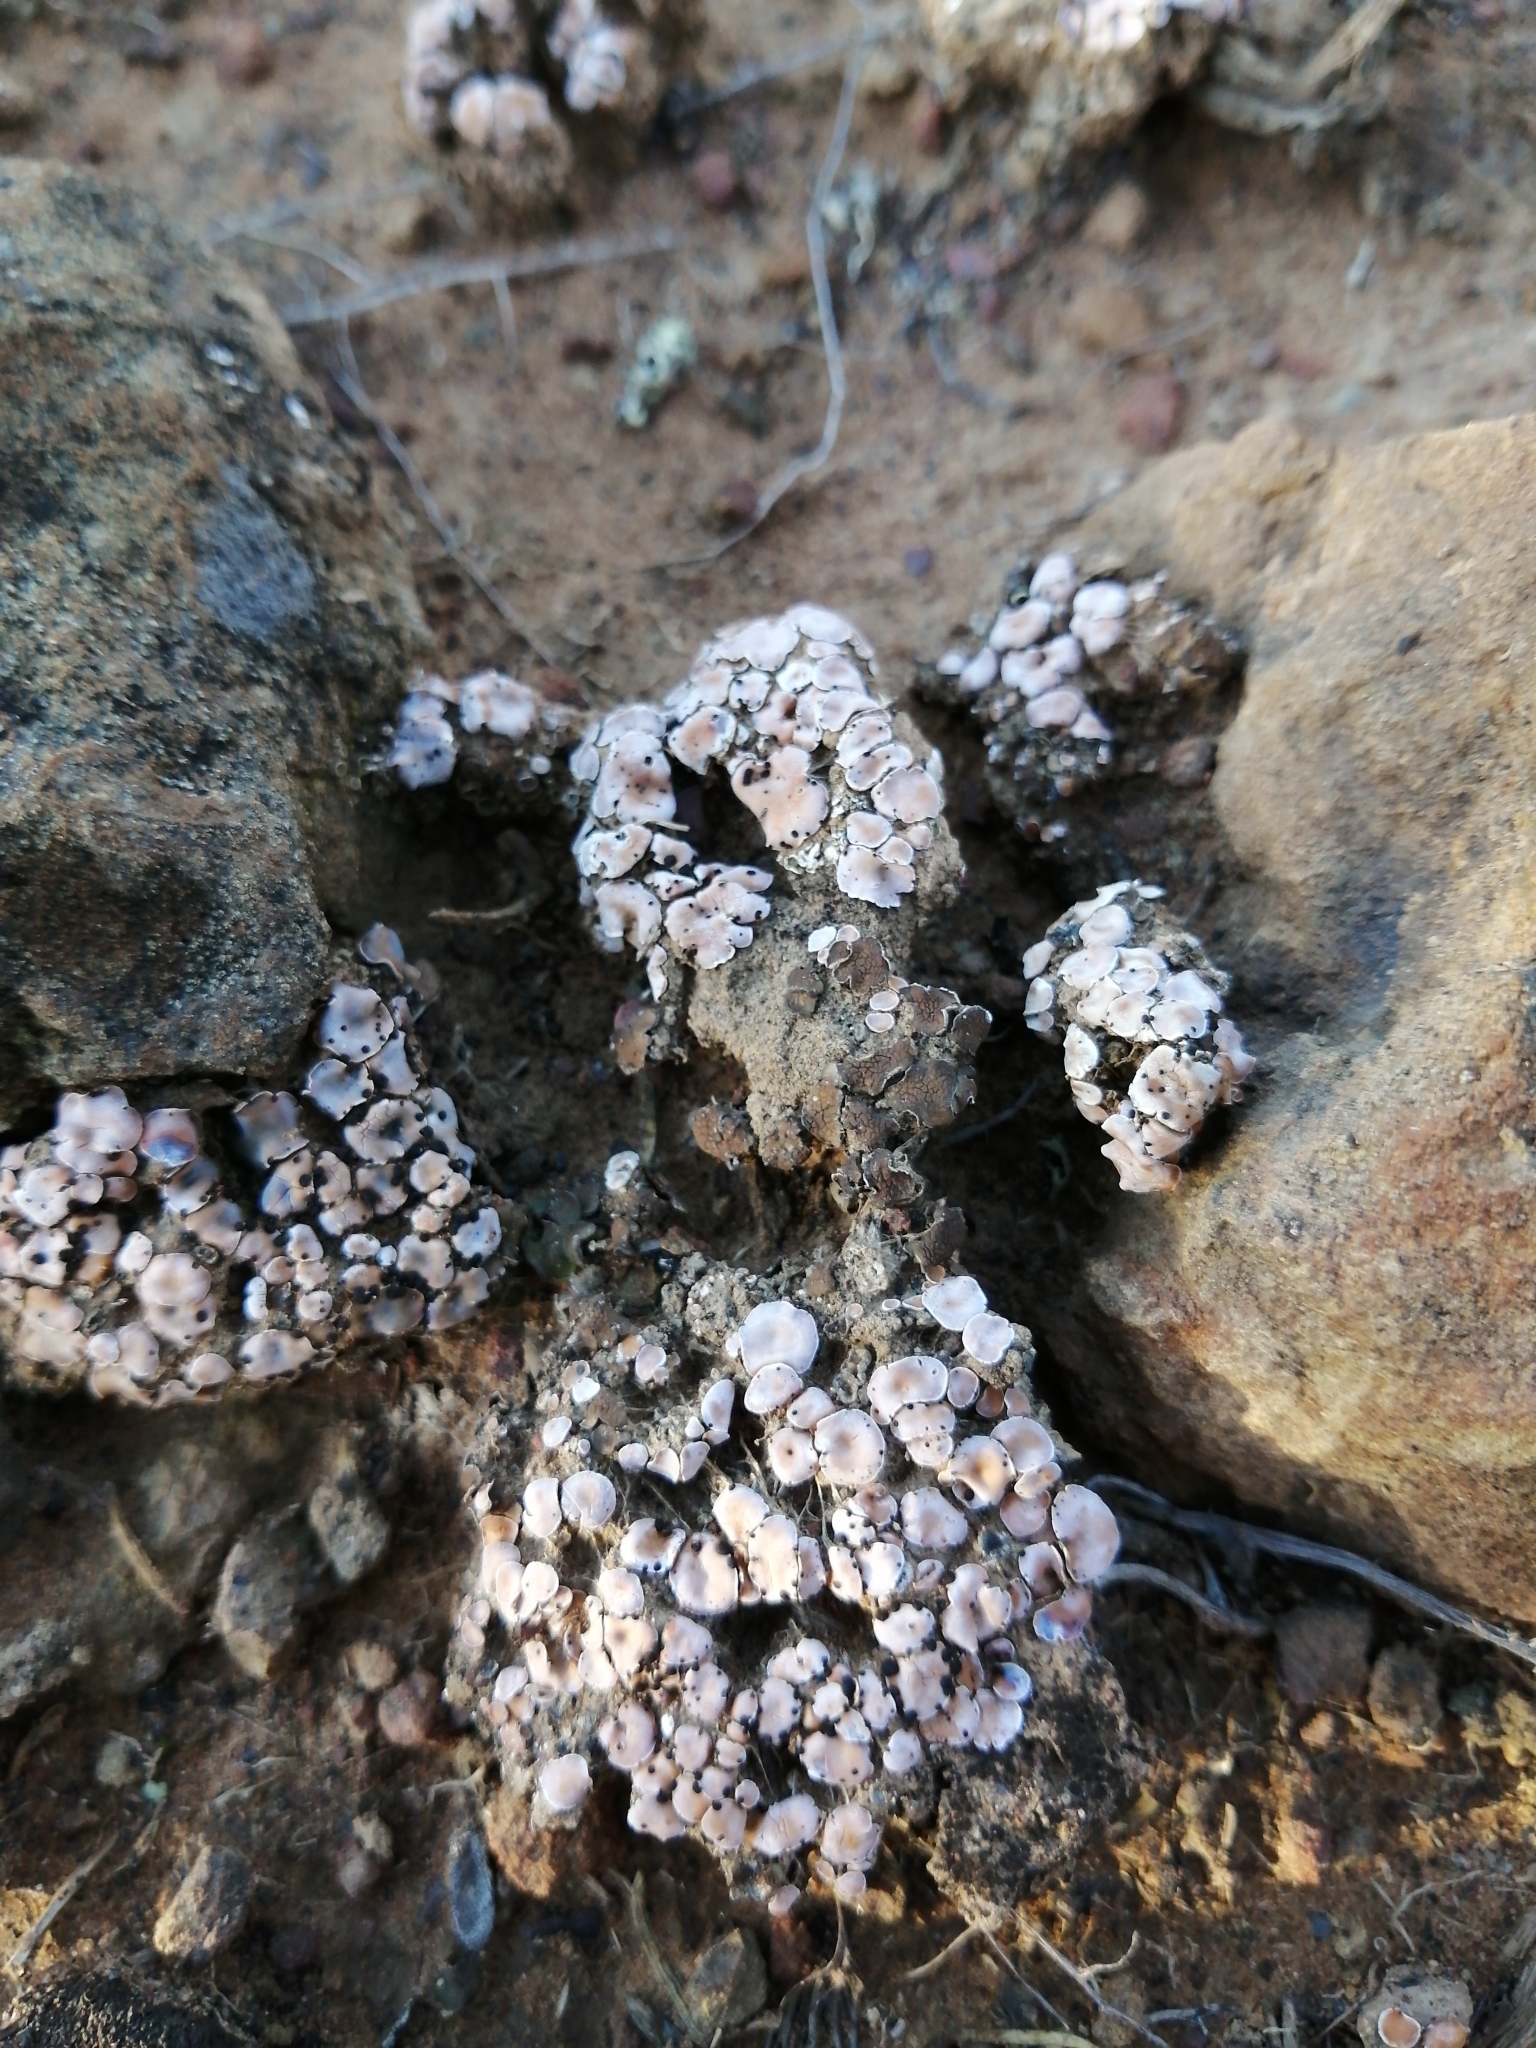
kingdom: Fungi
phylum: Ascomycota
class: Lecanoromycetes
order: Lecanorales
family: Psoraceae
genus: Psora
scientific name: Psora crenata
